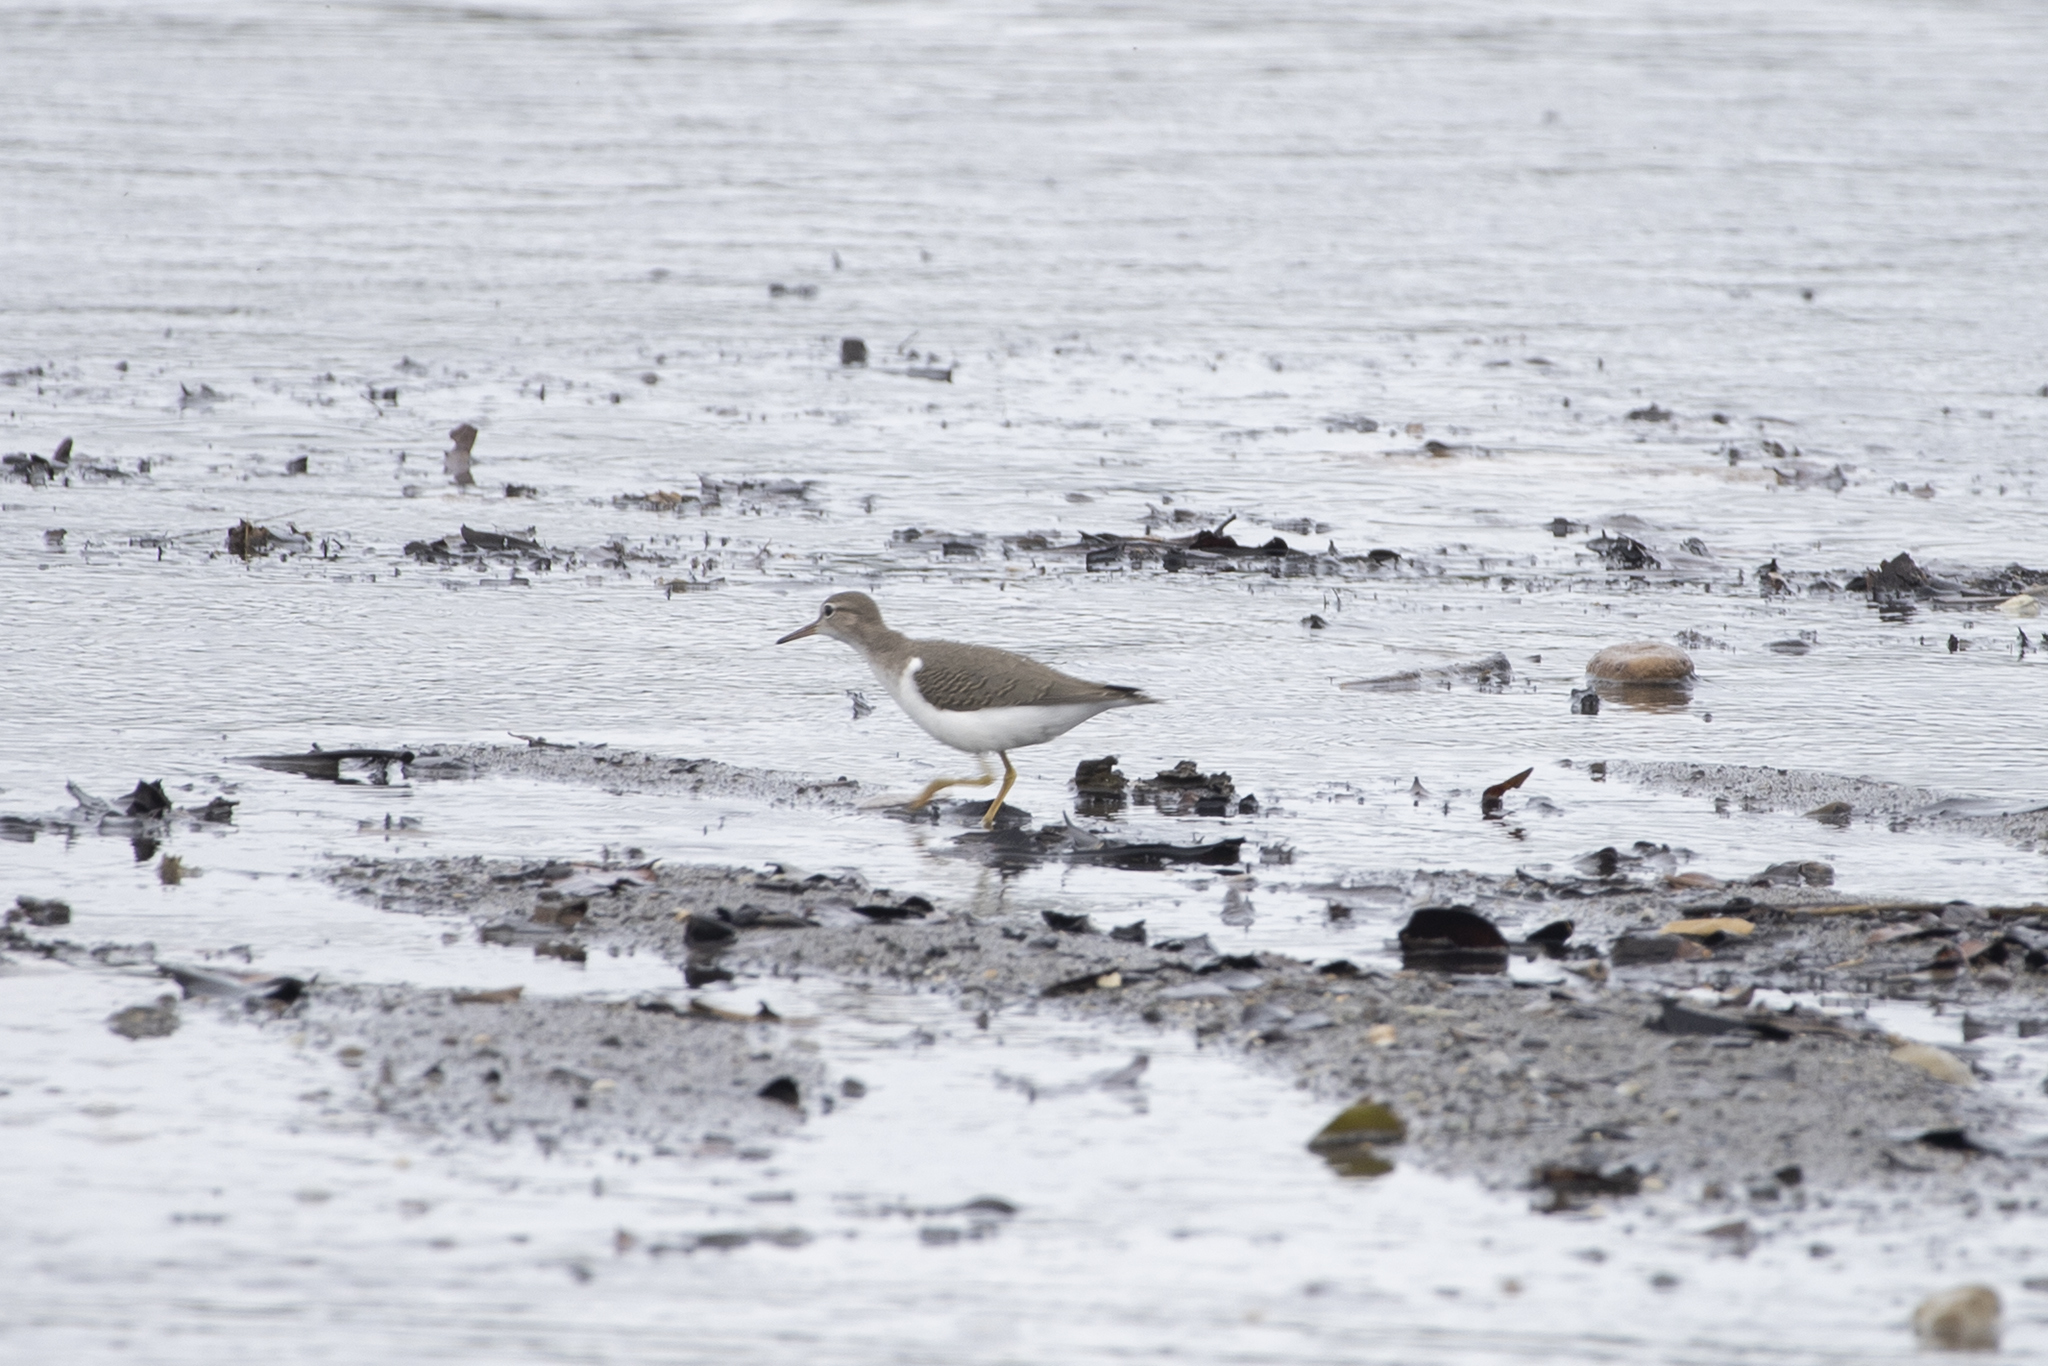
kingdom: Animalia
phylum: Chordata
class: Aves
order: Charadriiformes
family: Scolopacidae
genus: Actitis
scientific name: Actitis macularius
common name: Spotted sandpiper
